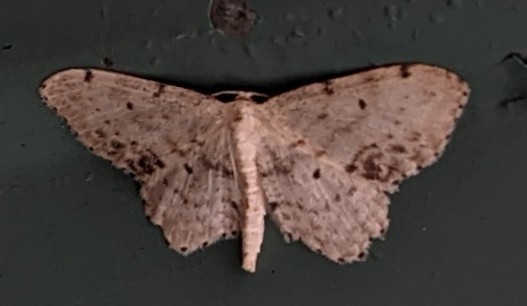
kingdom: Animalia
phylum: Arthropoda
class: Insecta
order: Lepidoptera
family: Geometridae
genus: Idaea
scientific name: Idaea dimidiata
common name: Single-dotted wave
